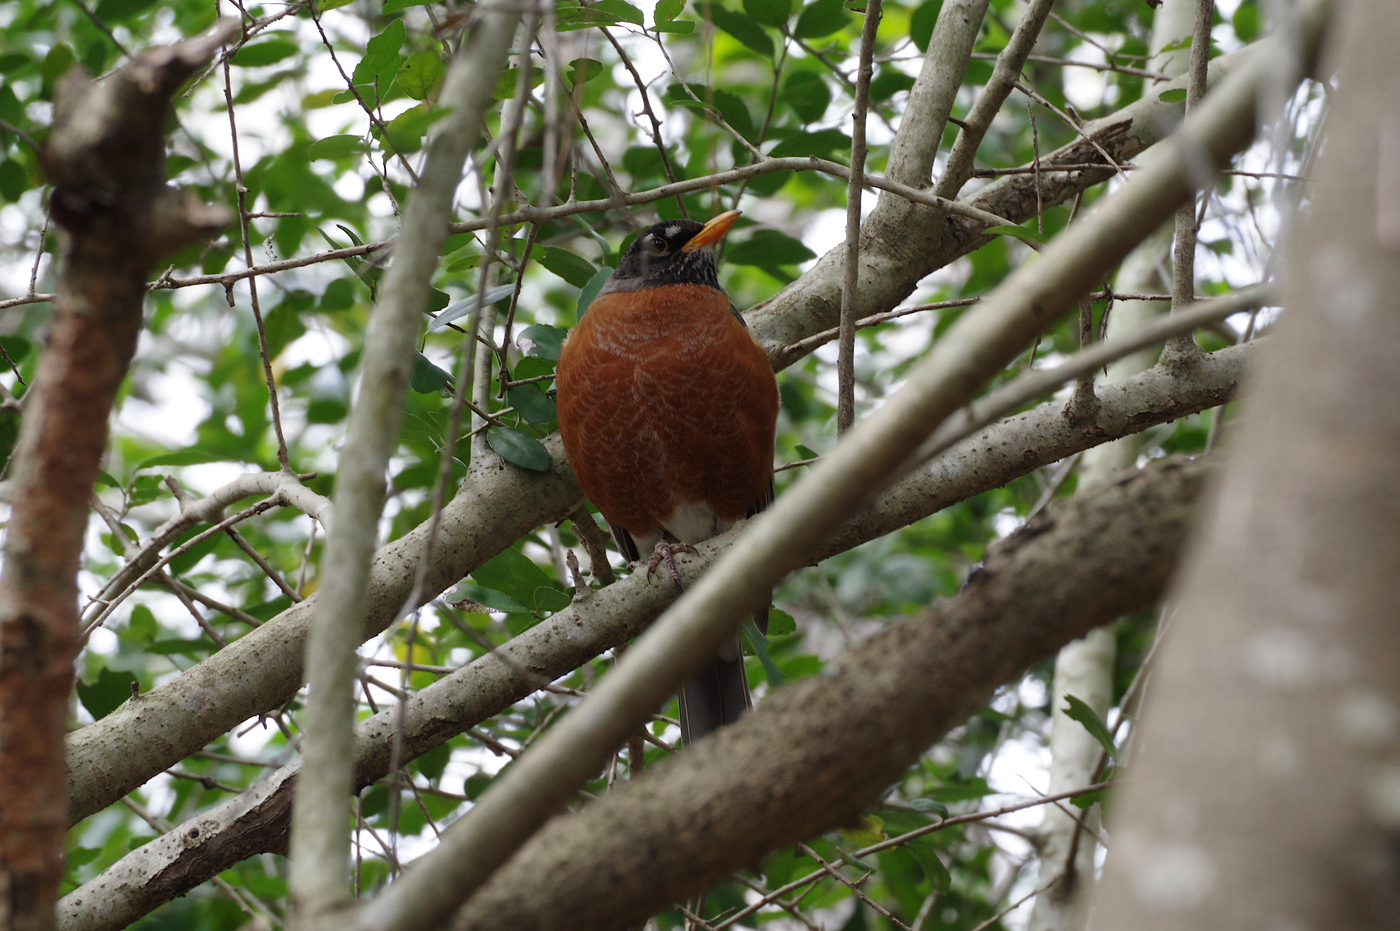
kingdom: Animalia
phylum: Chordata
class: Aves
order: Passeriformes
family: Turdidae
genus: Turdus
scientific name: Turdus migratorius
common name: American robin
